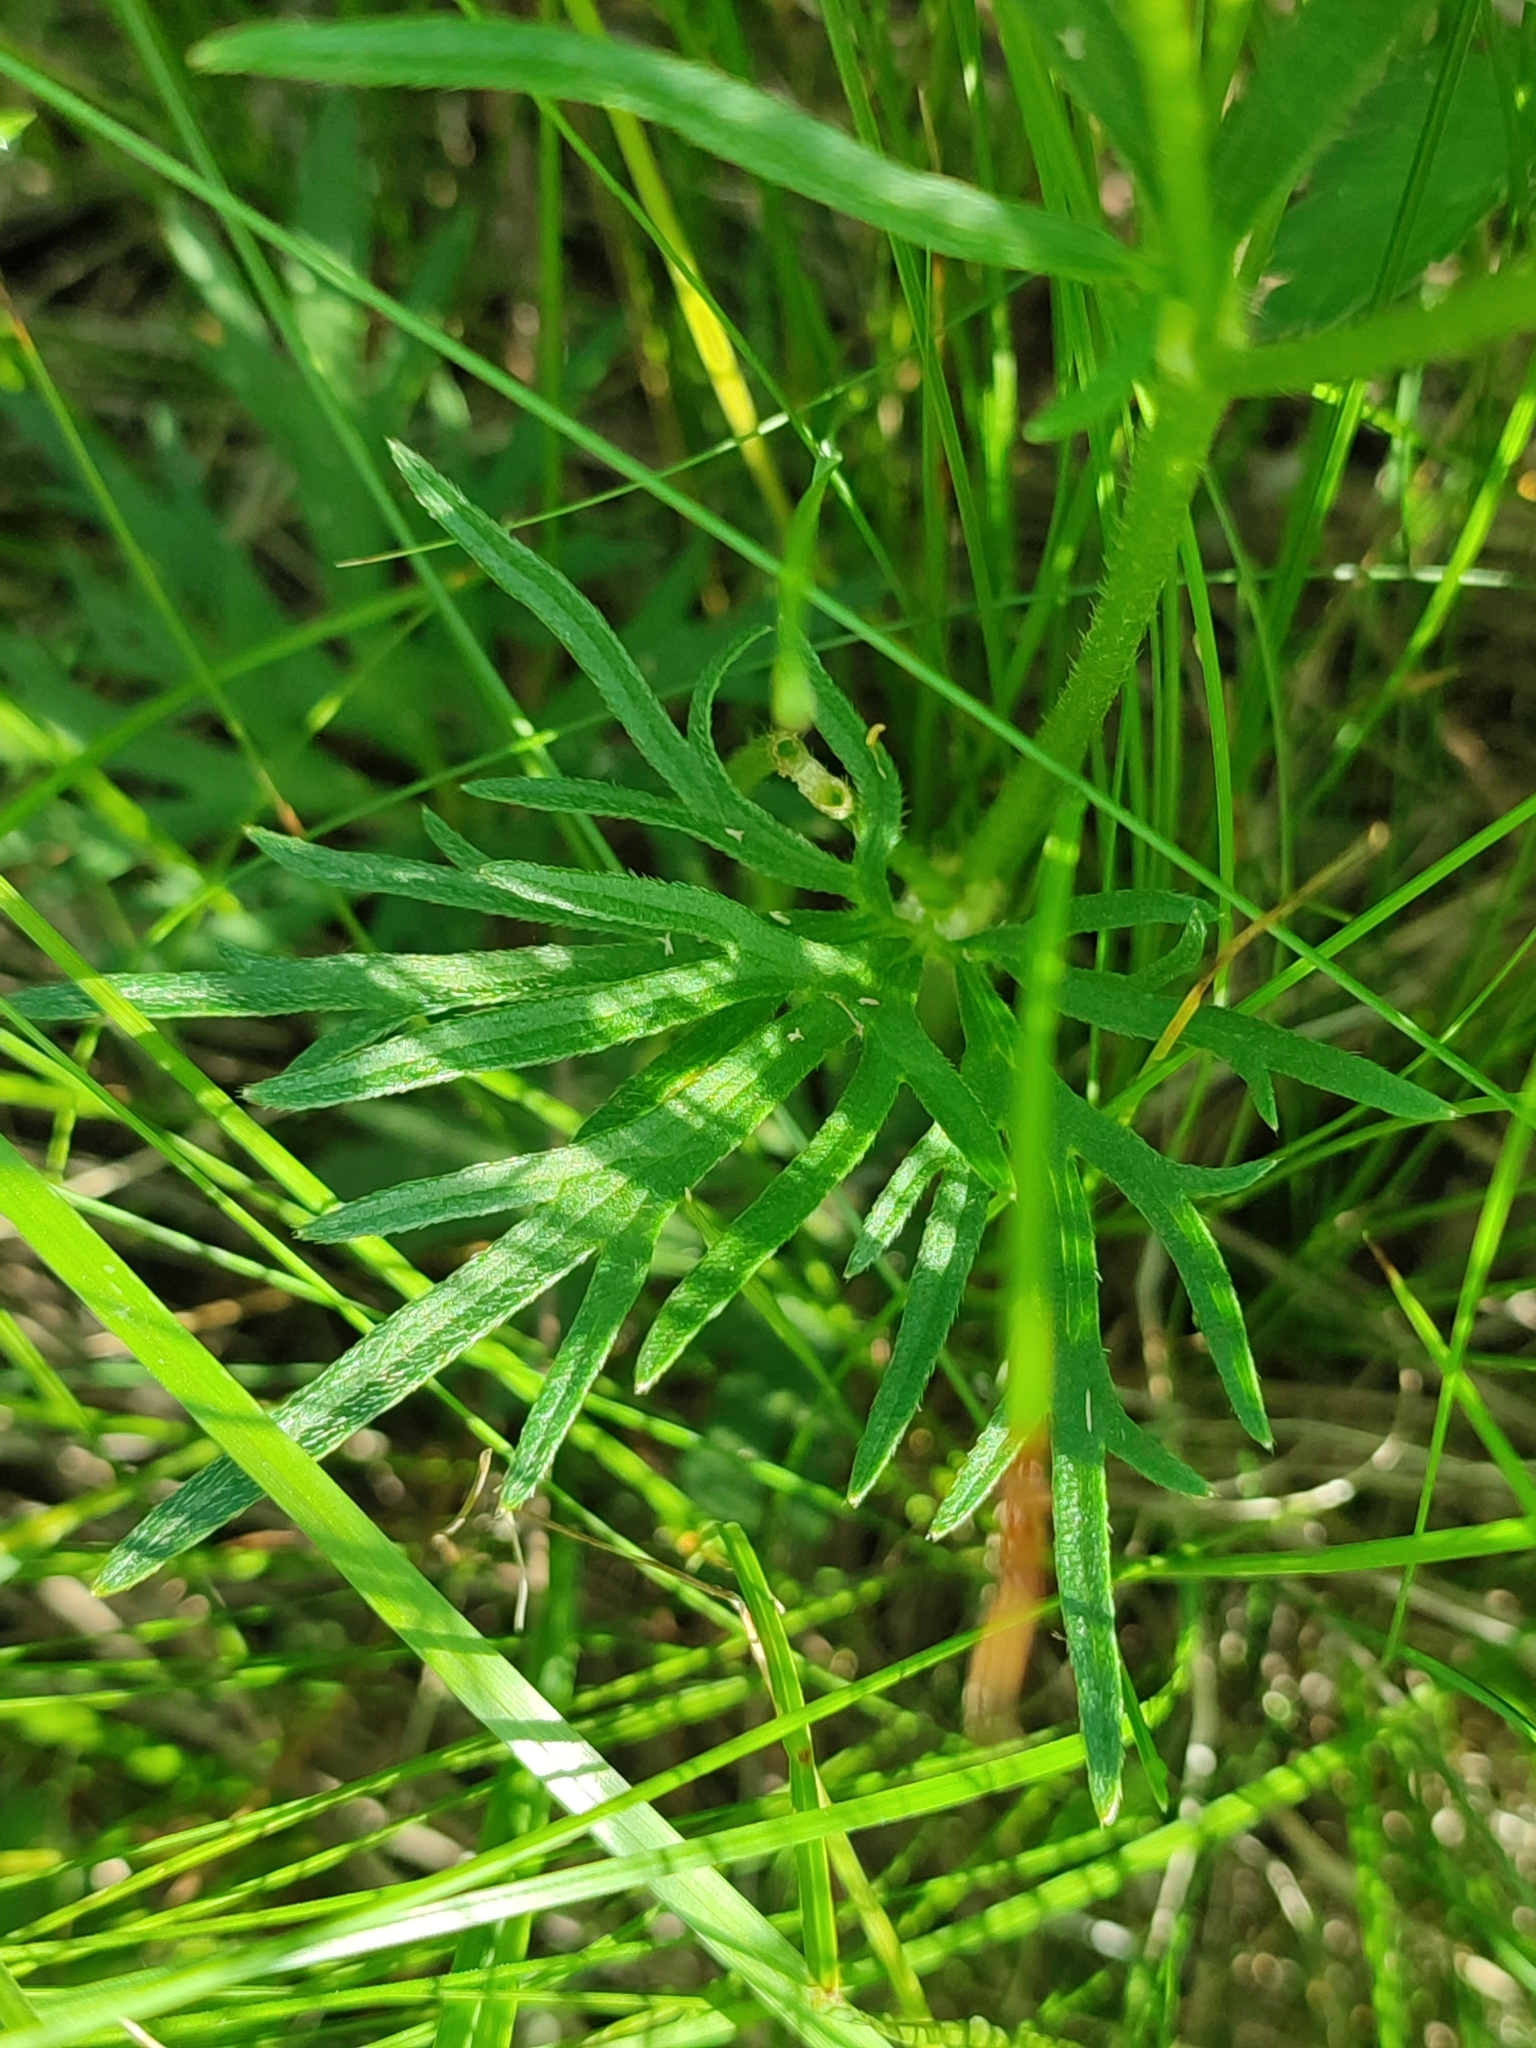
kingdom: Plantae
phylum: Tracheophyta
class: Magnoliopsida
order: Ranunculales
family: Ranunculaceae
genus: Ranunculus
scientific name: Ranunculus polyanthemos
